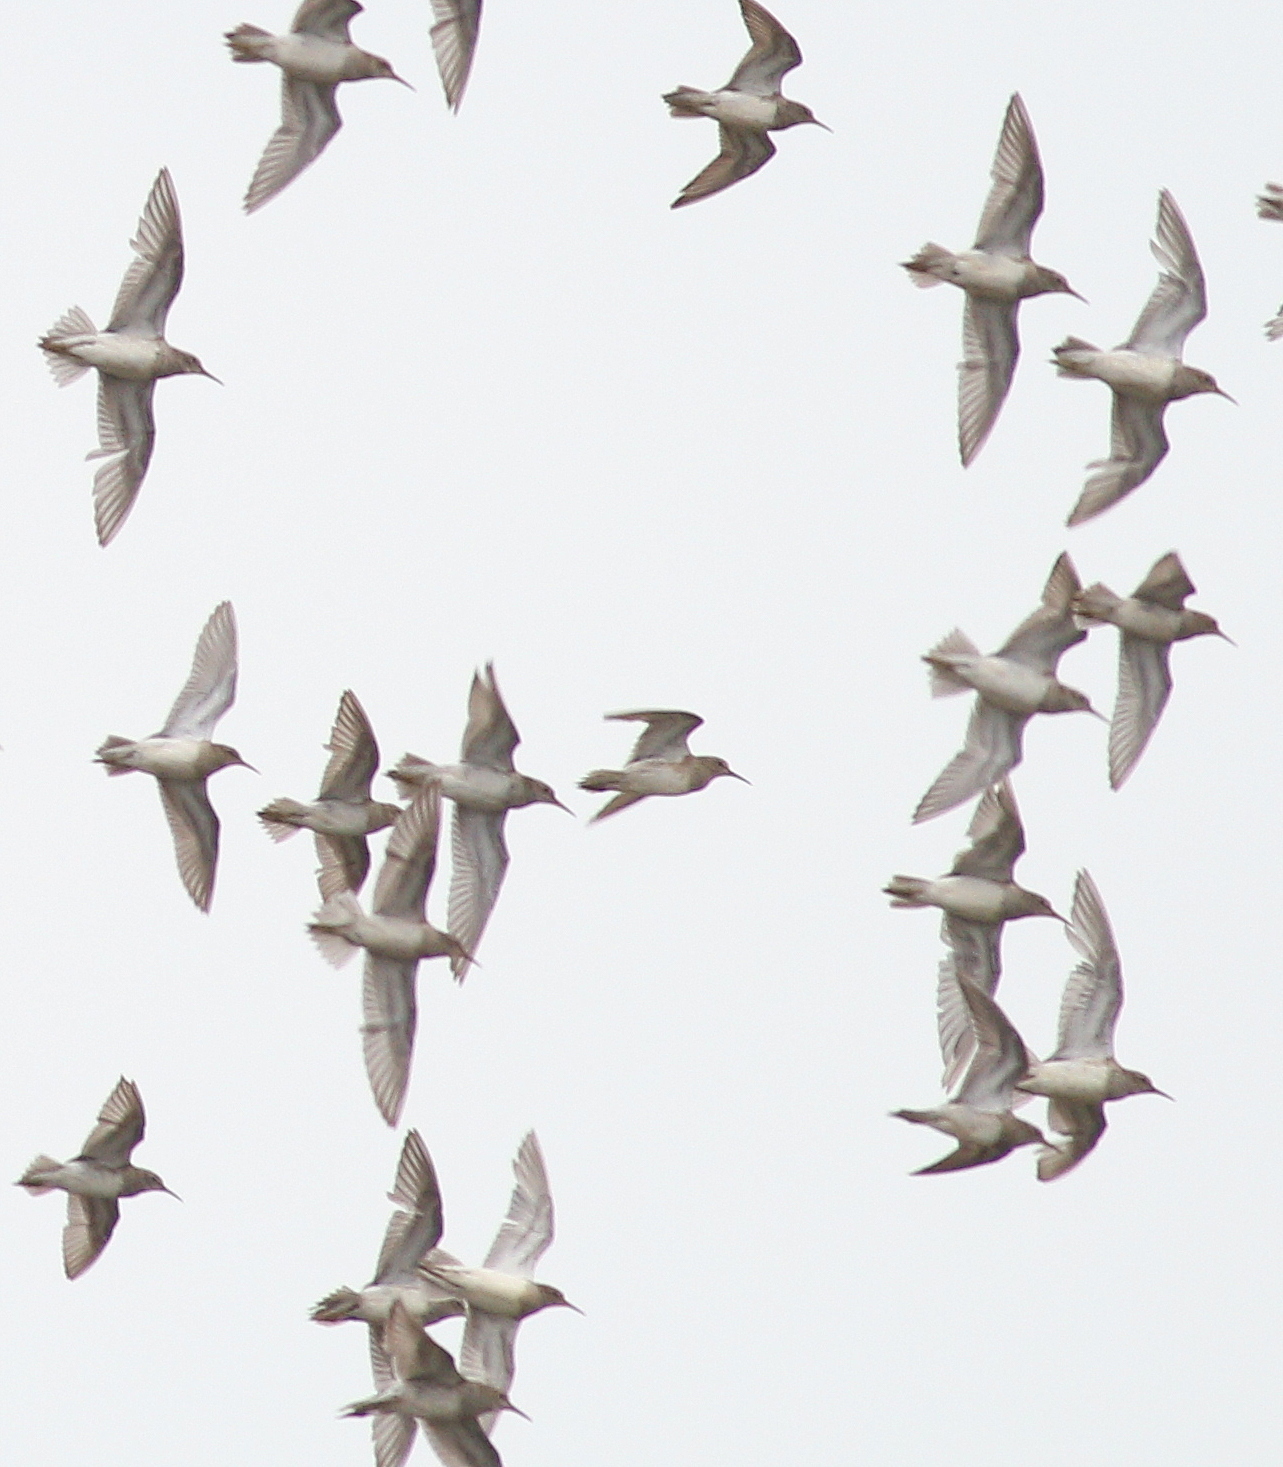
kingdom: Animalia
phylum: Chordata
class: Aves
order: Charadriiformes
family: Scolopacidae
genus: Calidris
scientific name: Calidris melanotos
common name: Pectoral sandpiper
